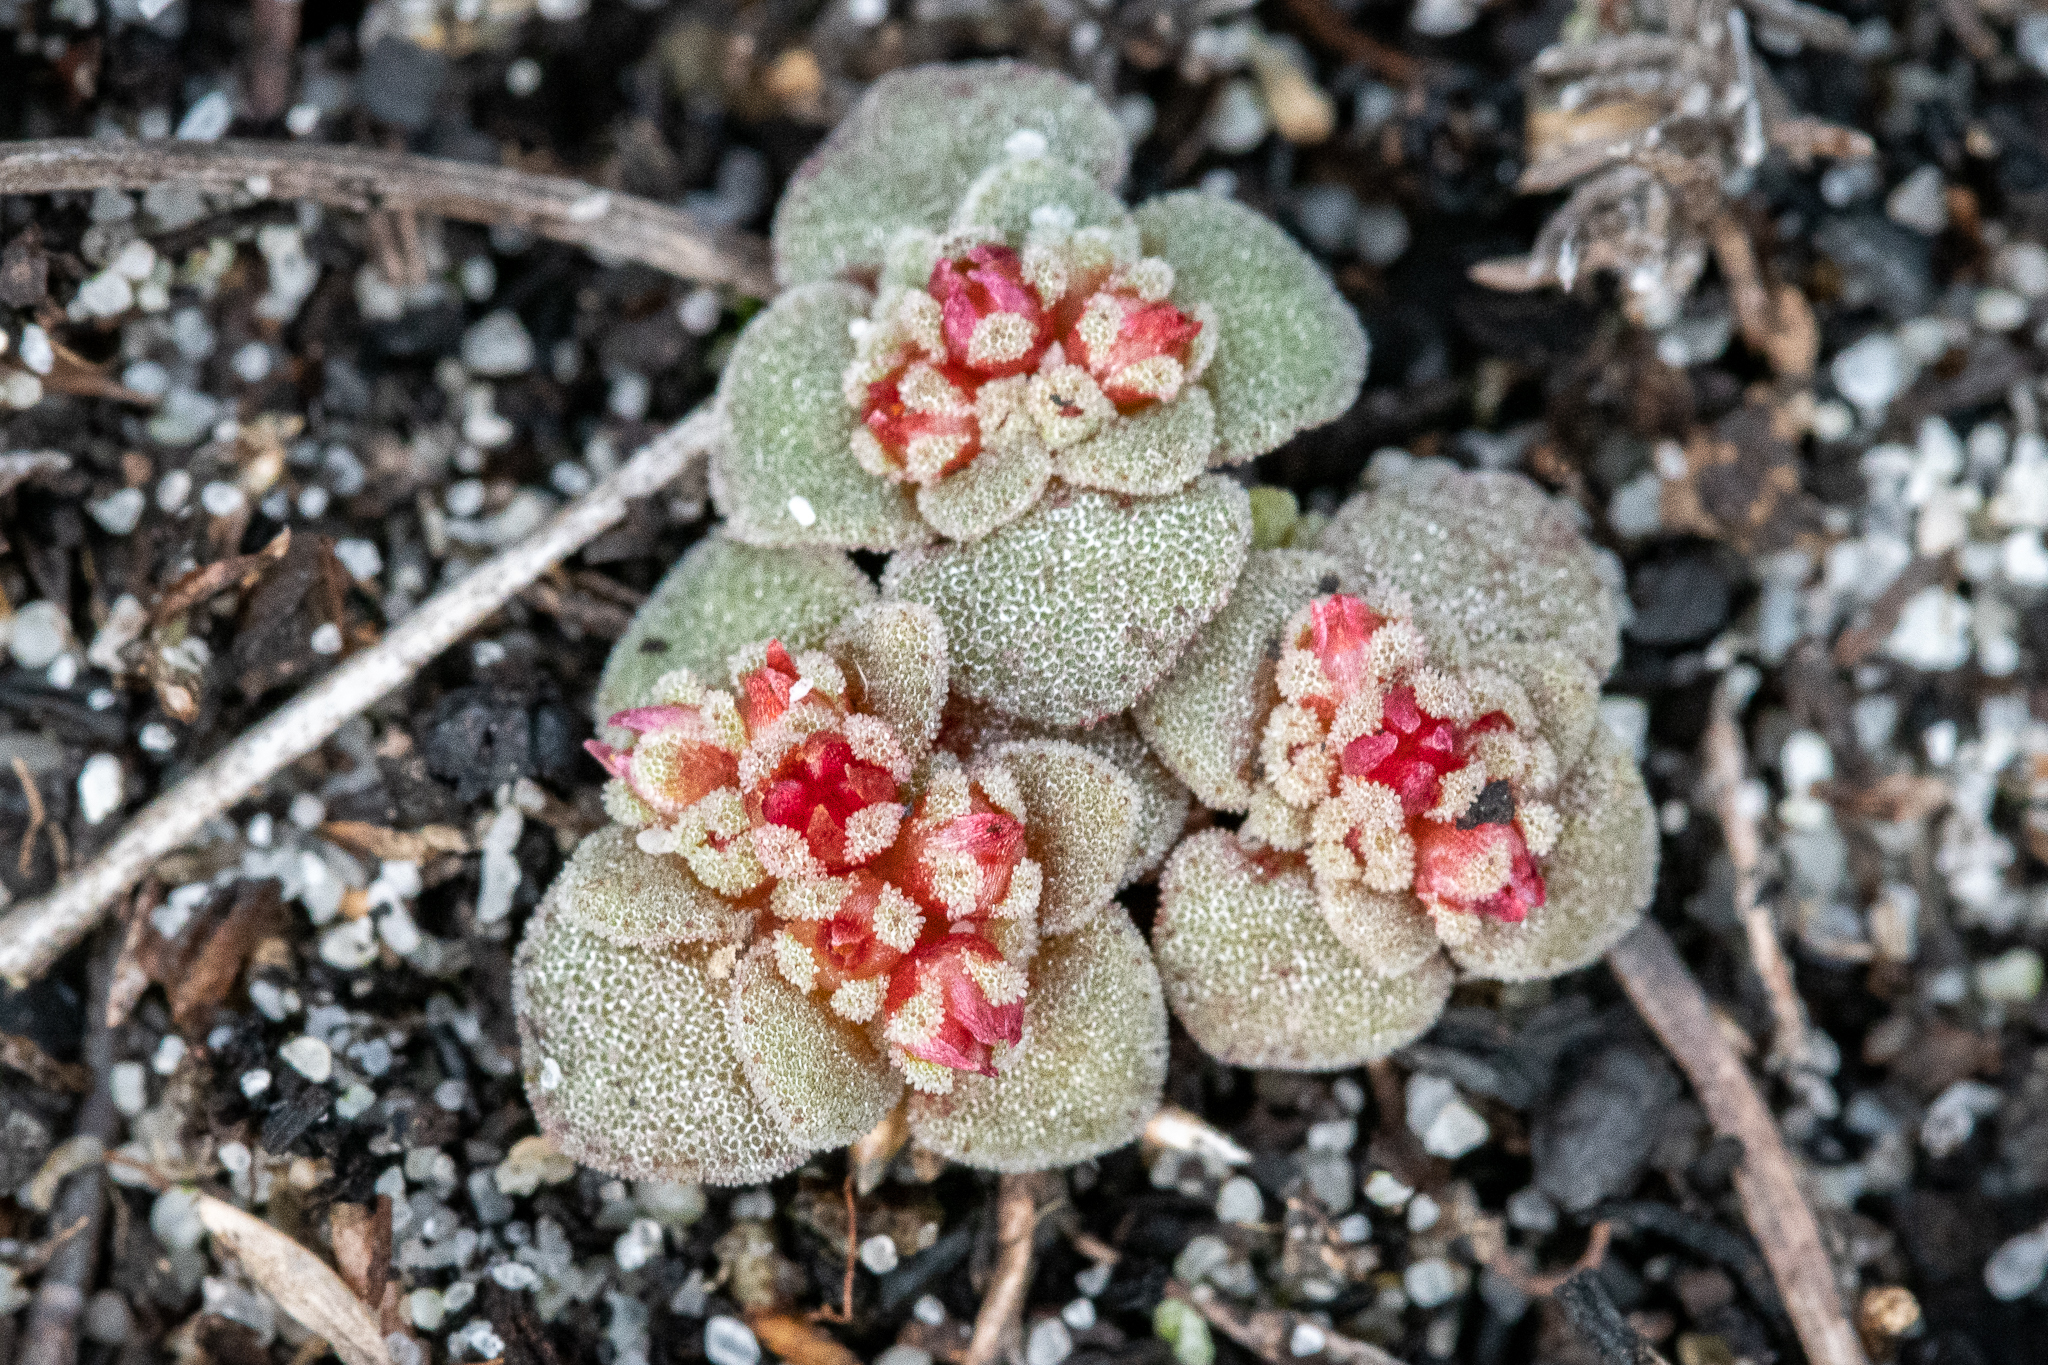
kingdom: Plantae
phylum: Tracheophyta
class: Magnoliopsida
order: Saxifragales
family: Crassulaceae
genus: Crassula
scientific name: Crassula umbellata
